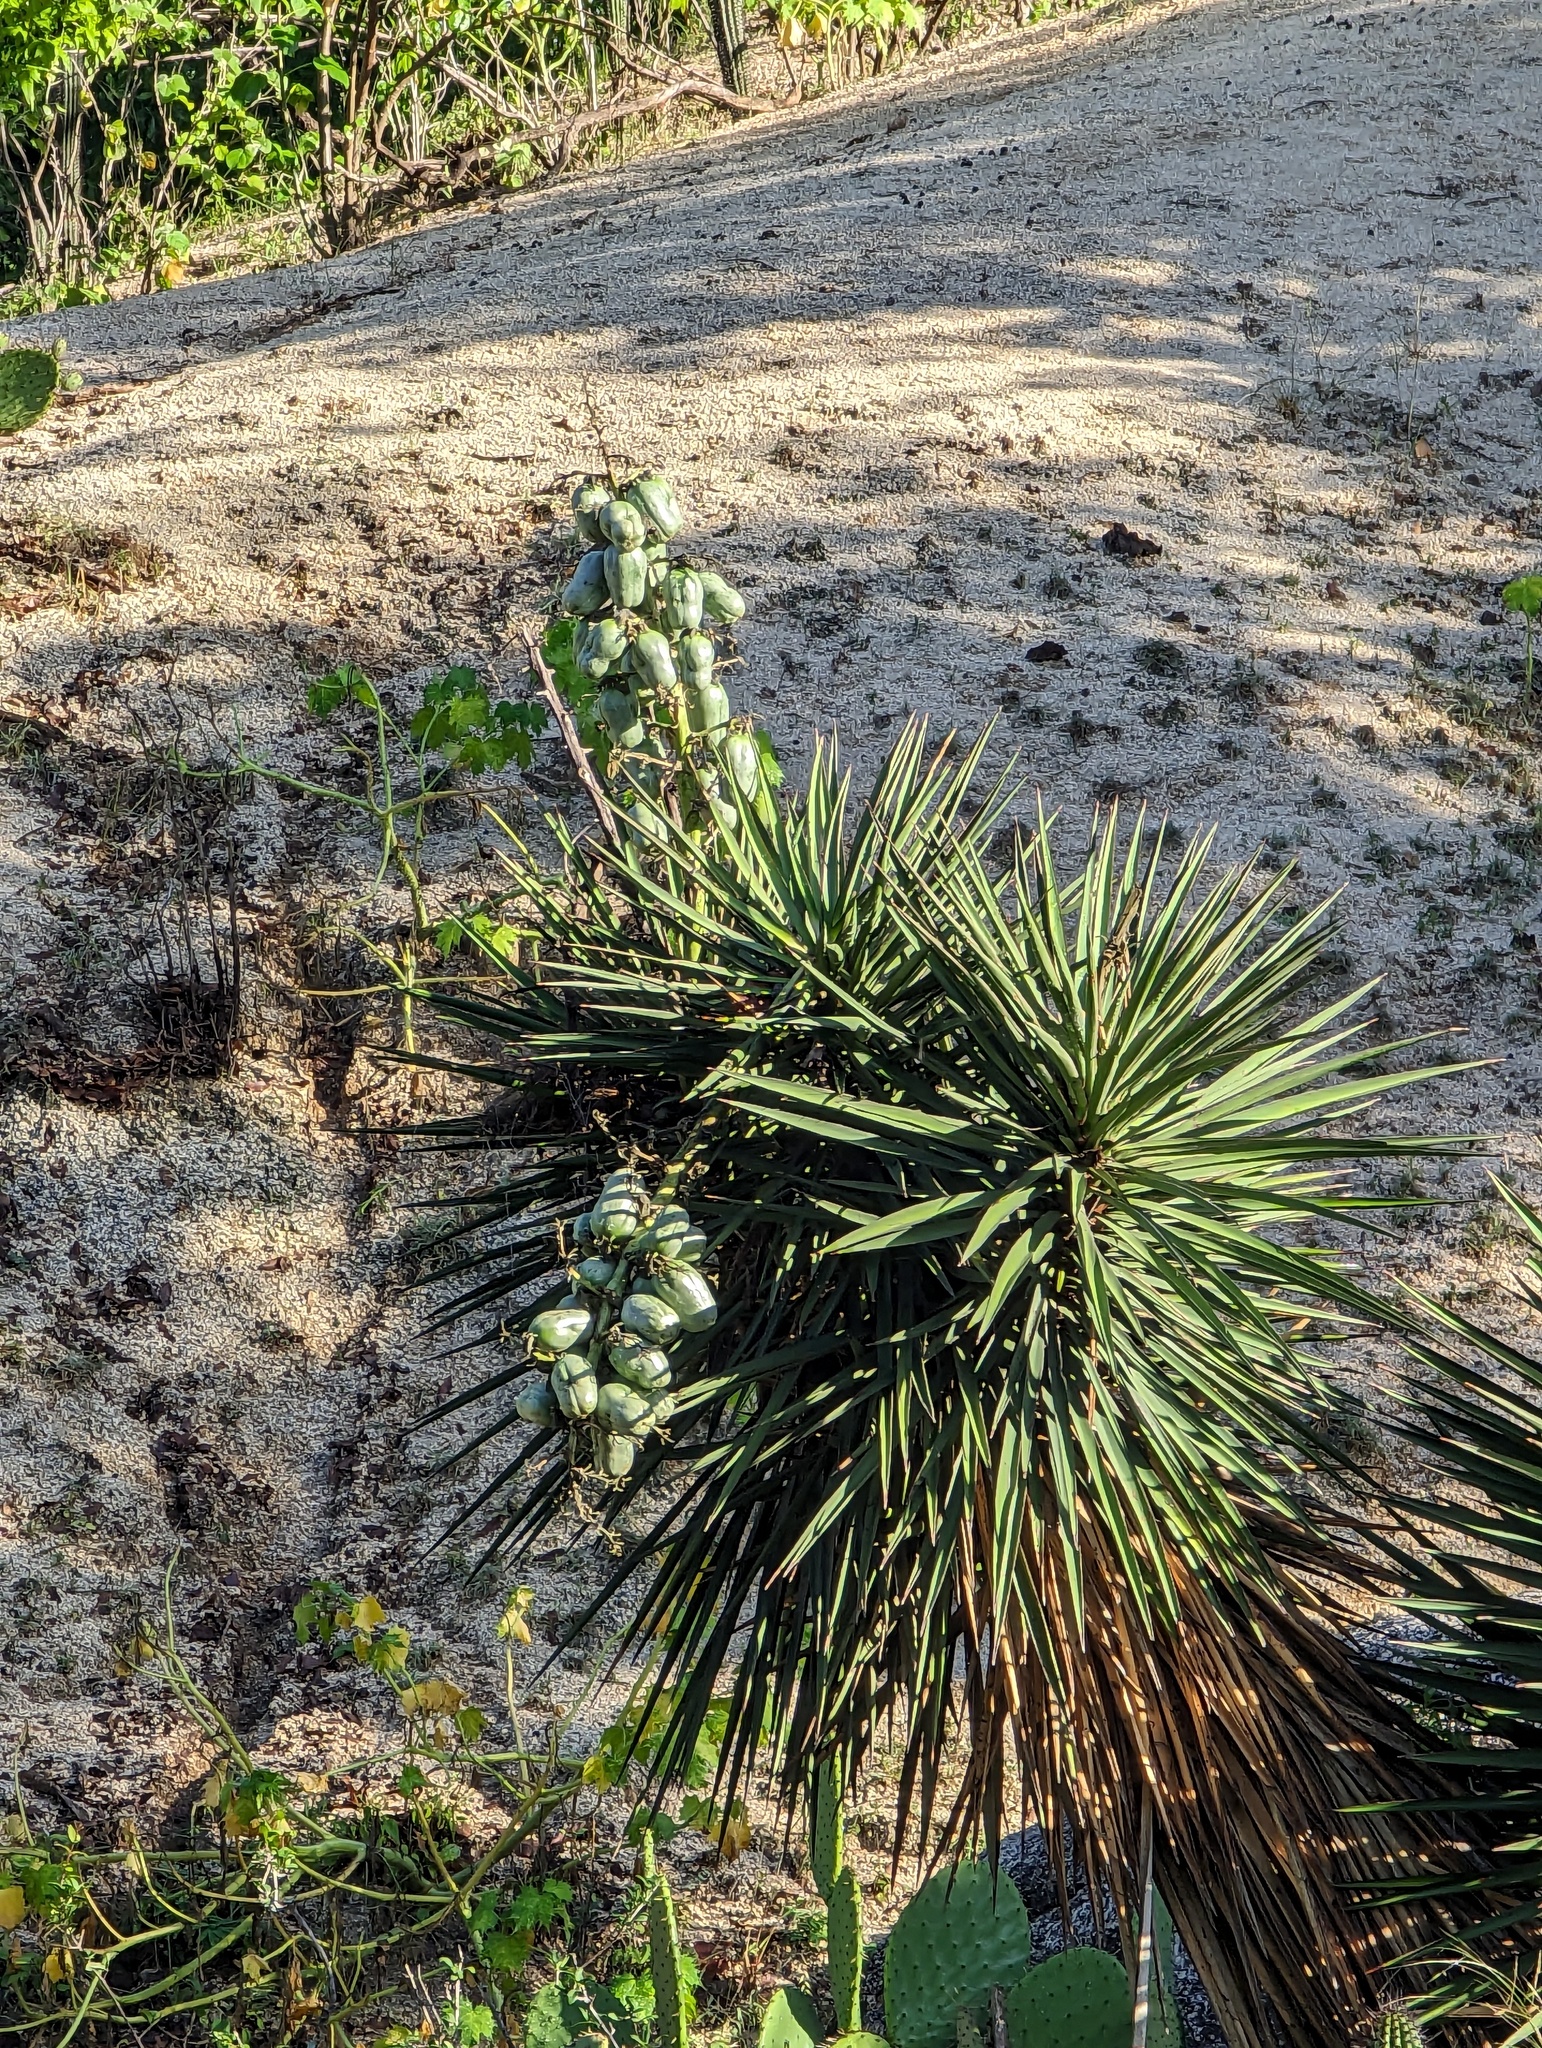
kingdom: Plantae
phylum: Tracheophyta
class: Liliopsida
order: Asparagales
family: Asparagaceae
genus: Yucca
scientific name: Yucca capensis
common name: Cape region yucca
